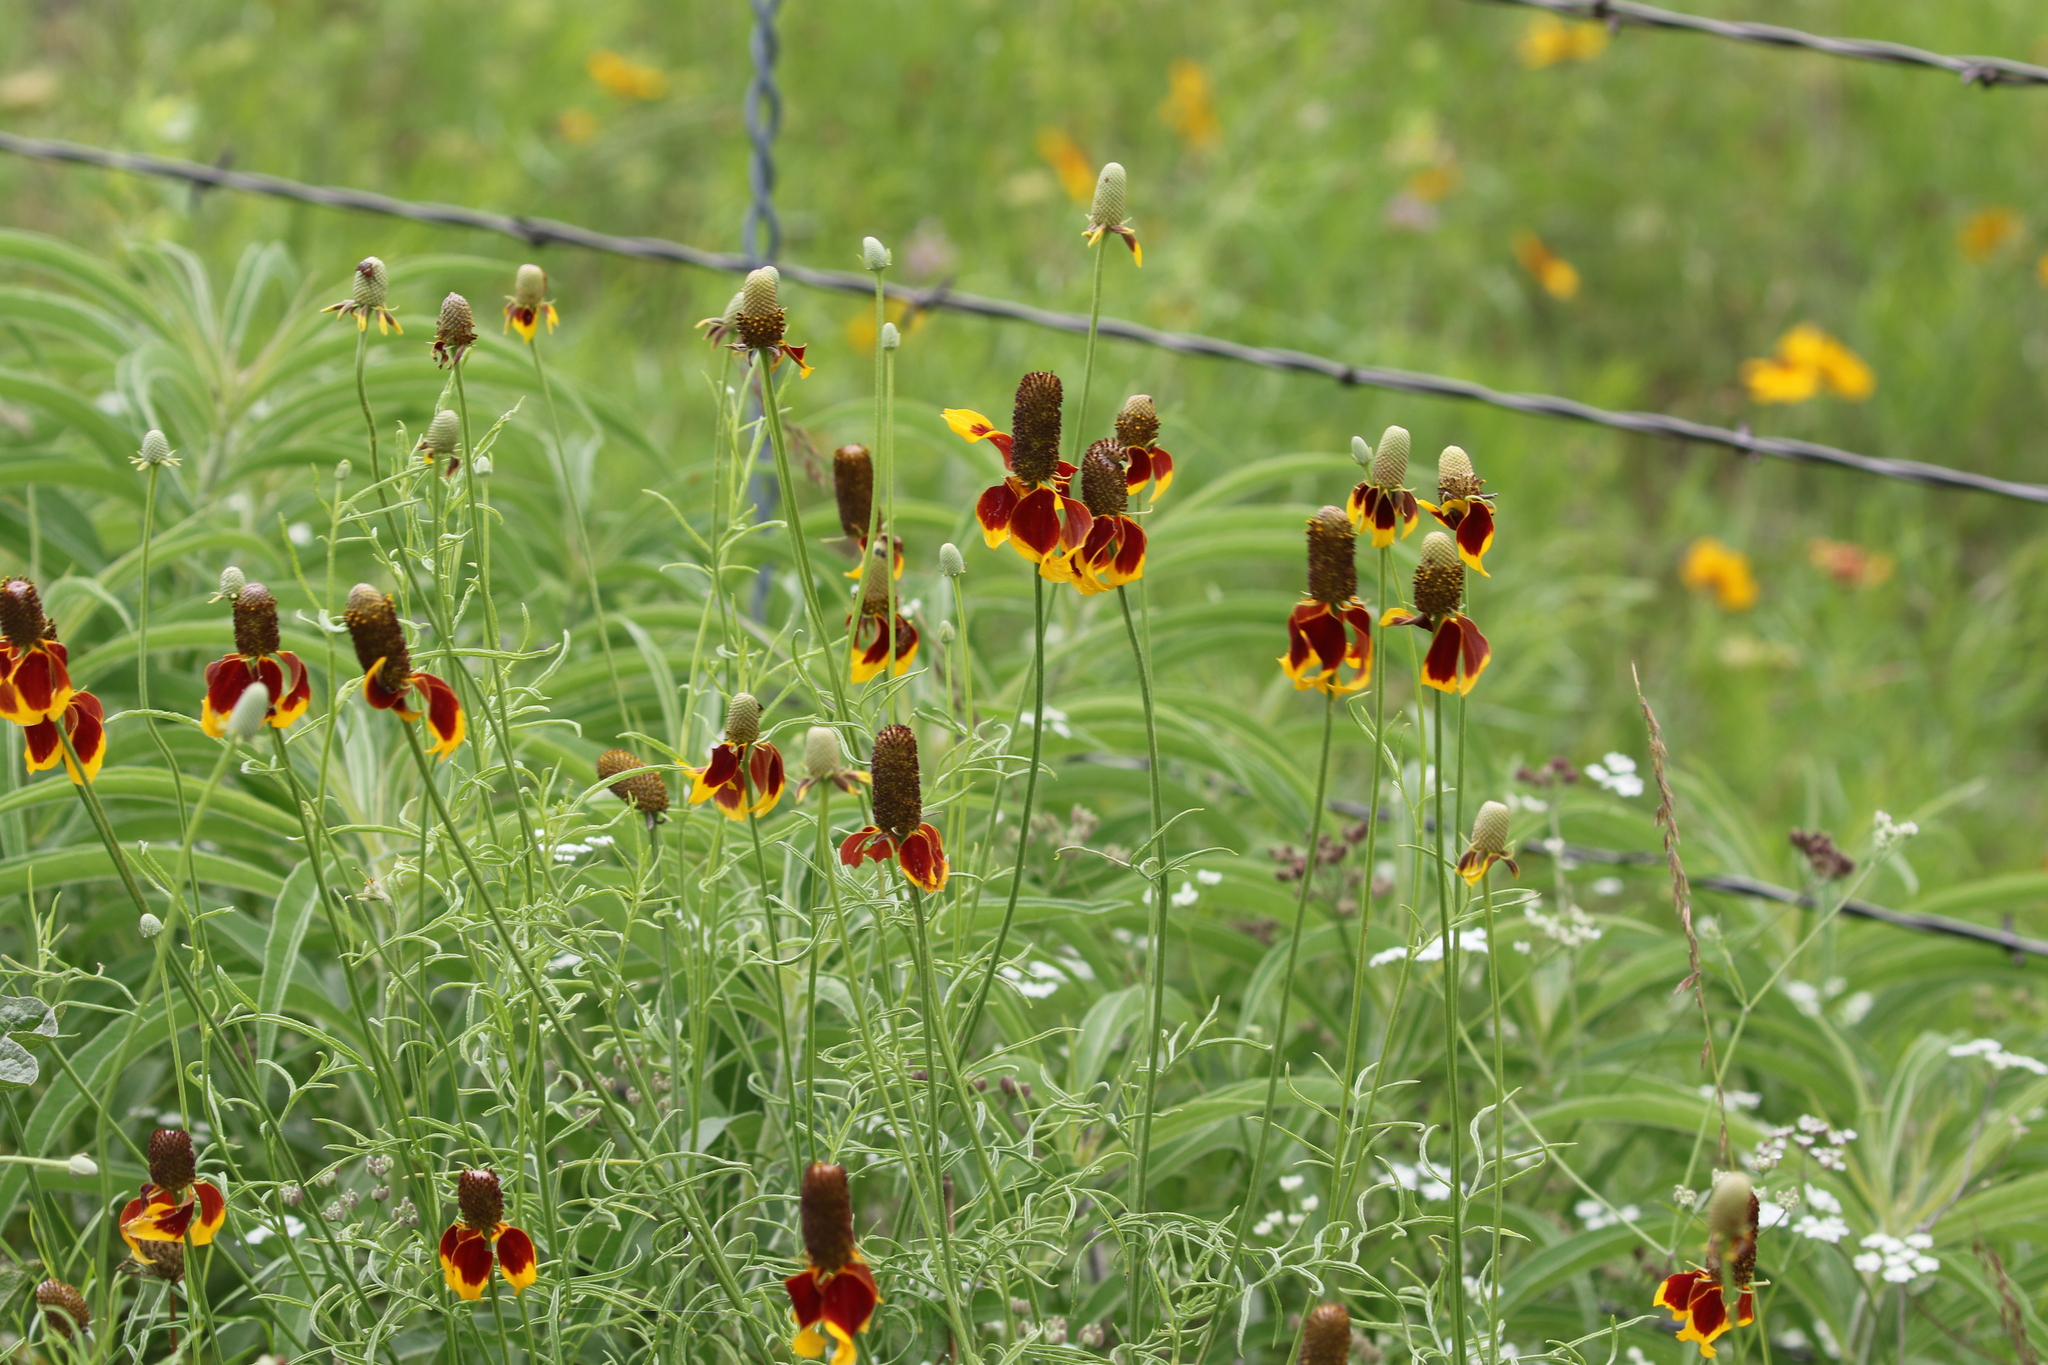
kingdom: Plantae
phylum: Tracheophyta
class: Magnoliopsida
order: Asterales
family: Asteraceae
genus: Ratibida
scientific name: Ratibida columnifera
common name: Prairie coneflower
